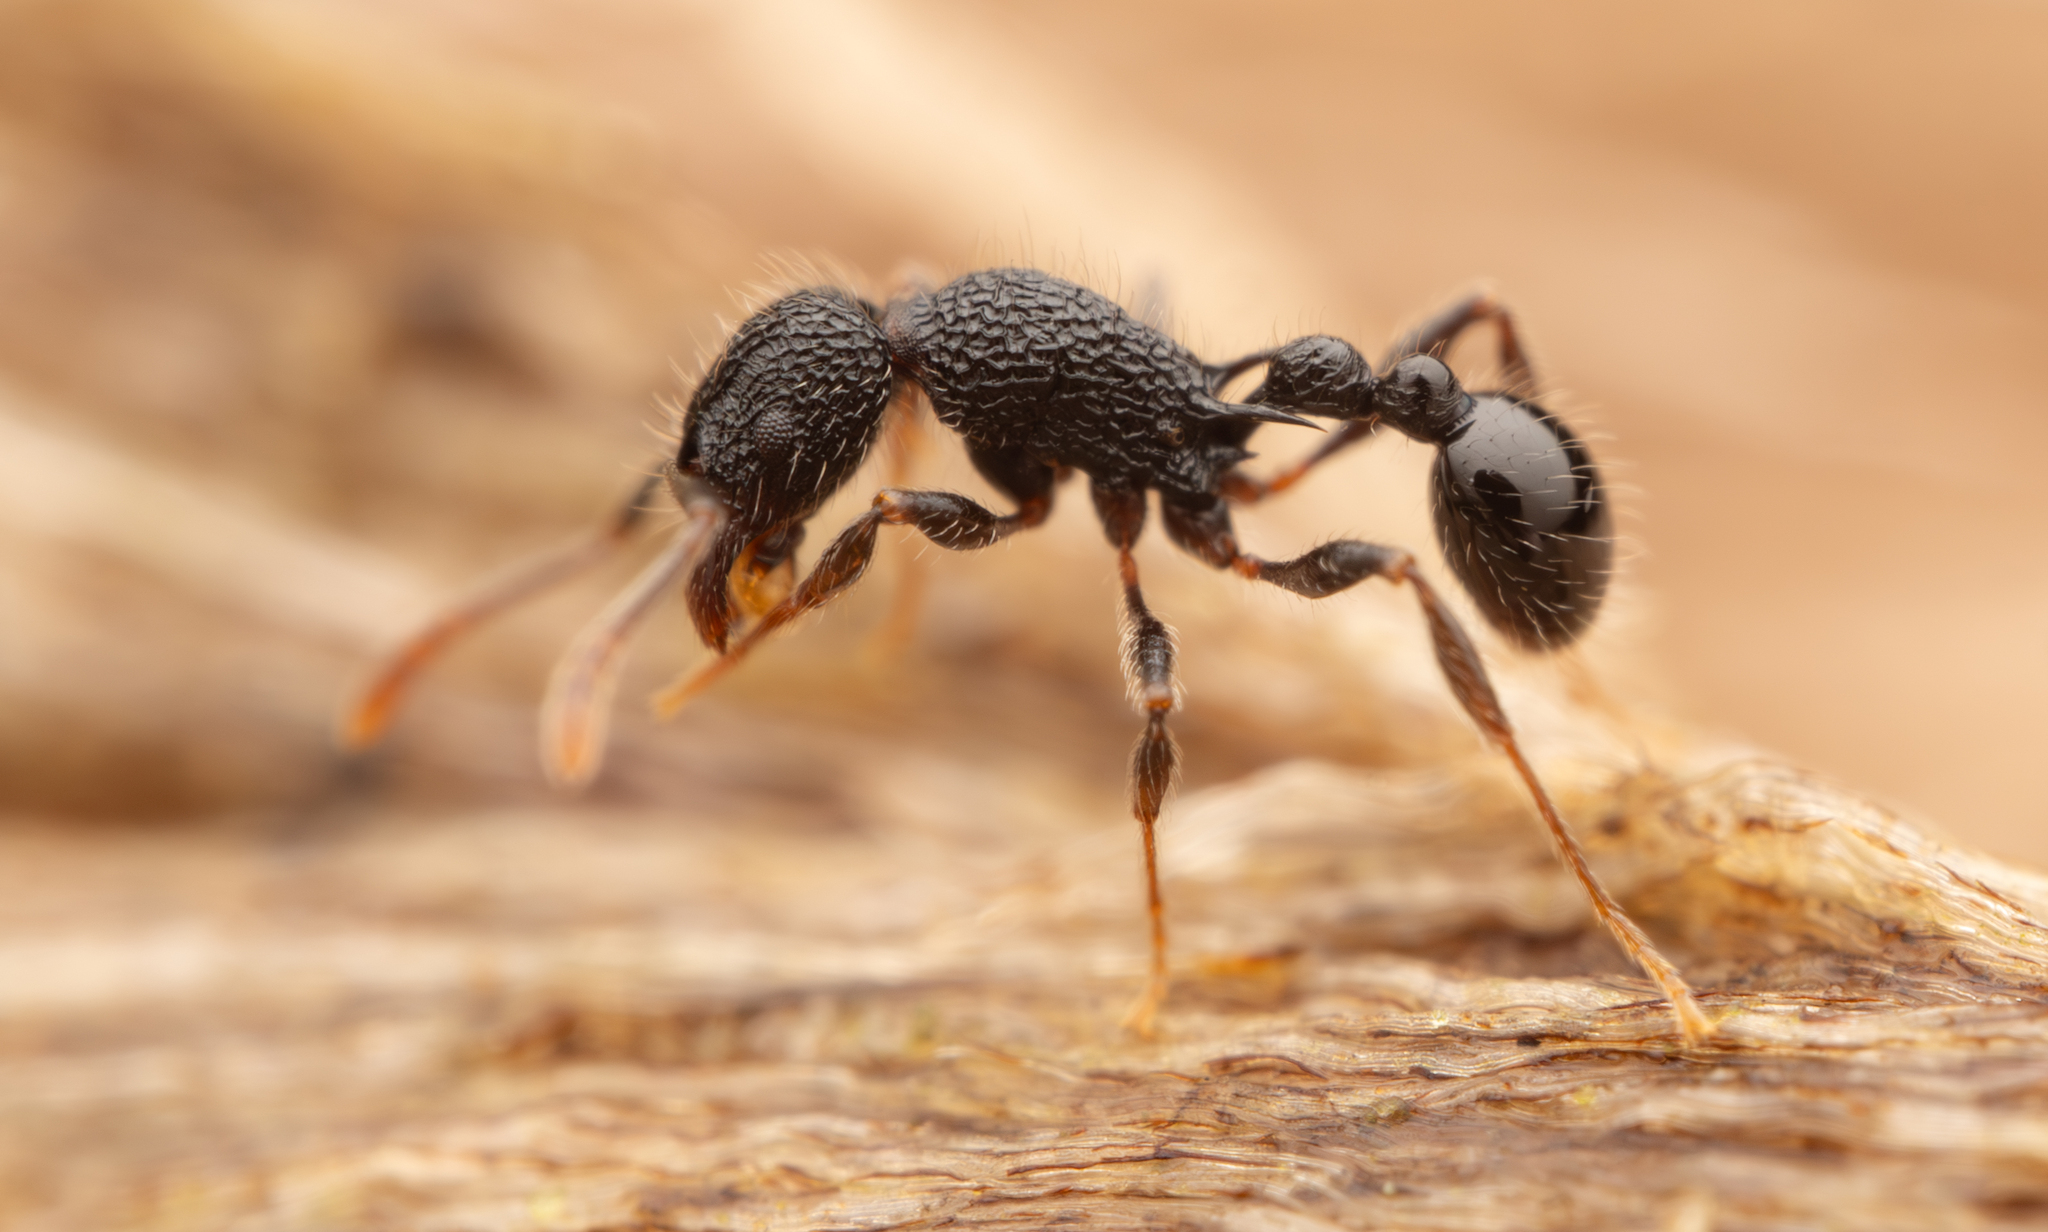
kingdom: Animalia
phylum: Arthropoda
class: Insecta
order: Hymenoptera
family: Formicidae
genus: Tetramorium
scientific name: Tetramorium sculptatum
